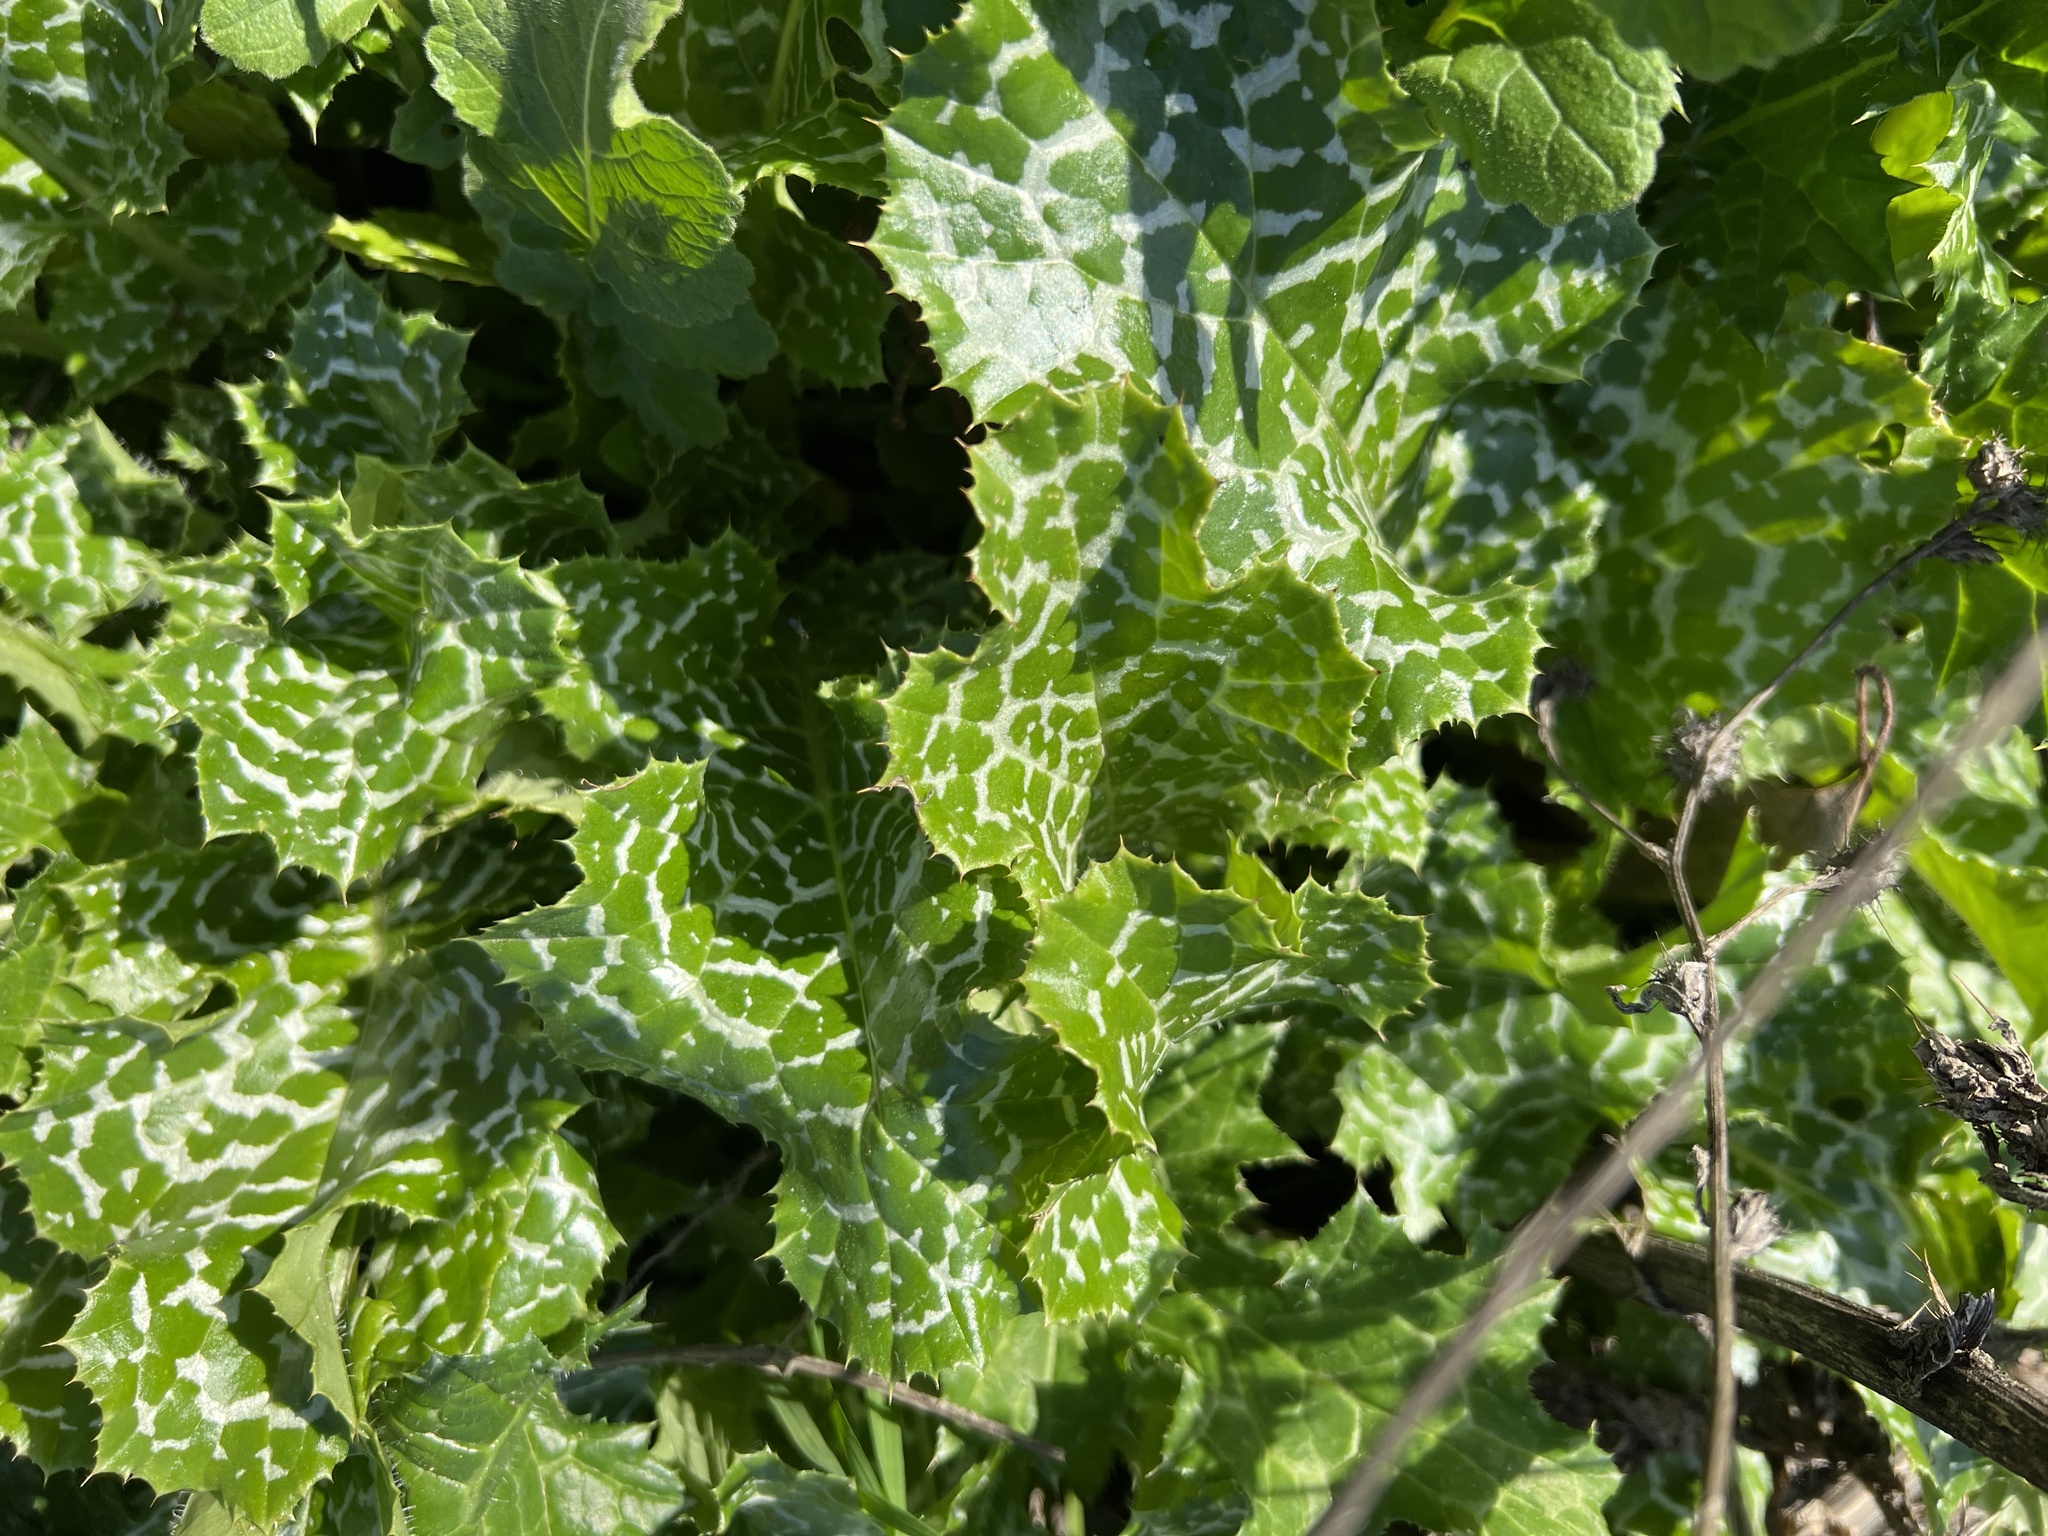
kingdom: Plantae
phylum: Tracheophyta
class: Magnoliopsida
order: Asterales
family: Asteraceae
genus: Silybum
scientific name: Silybum marianum
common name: Milk thistle
